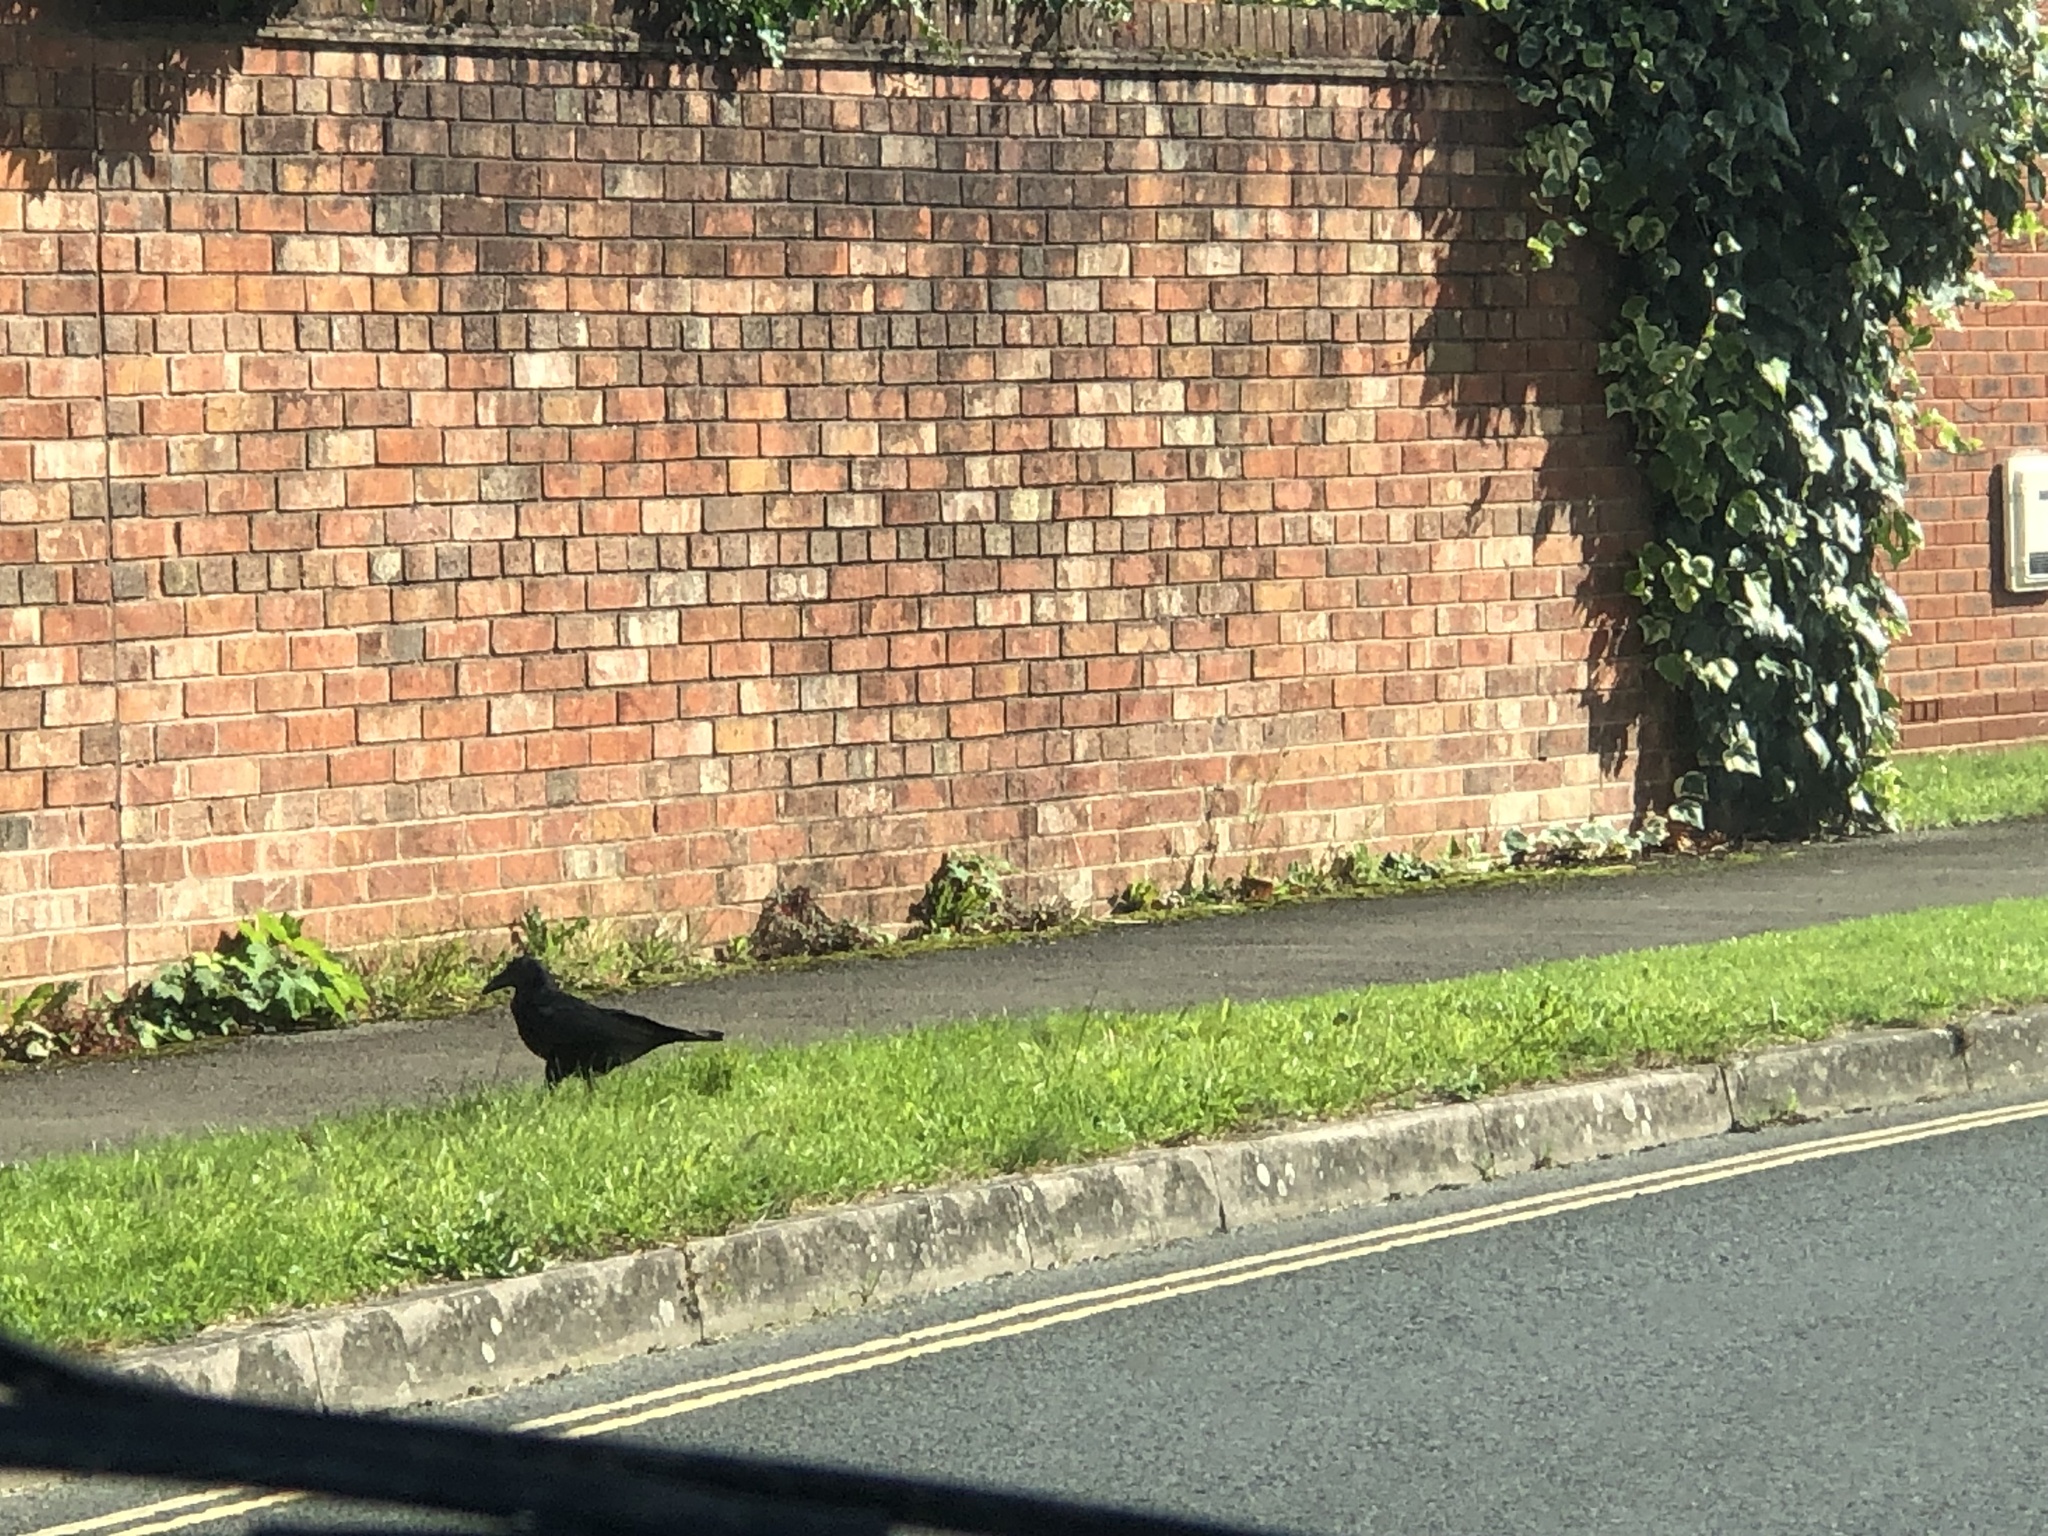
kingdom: Animalia
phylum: Chordata
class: Aves
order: Passeriformes
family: Corvidae
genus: Corvus
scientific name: Corvus corone
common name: Carrion crow
